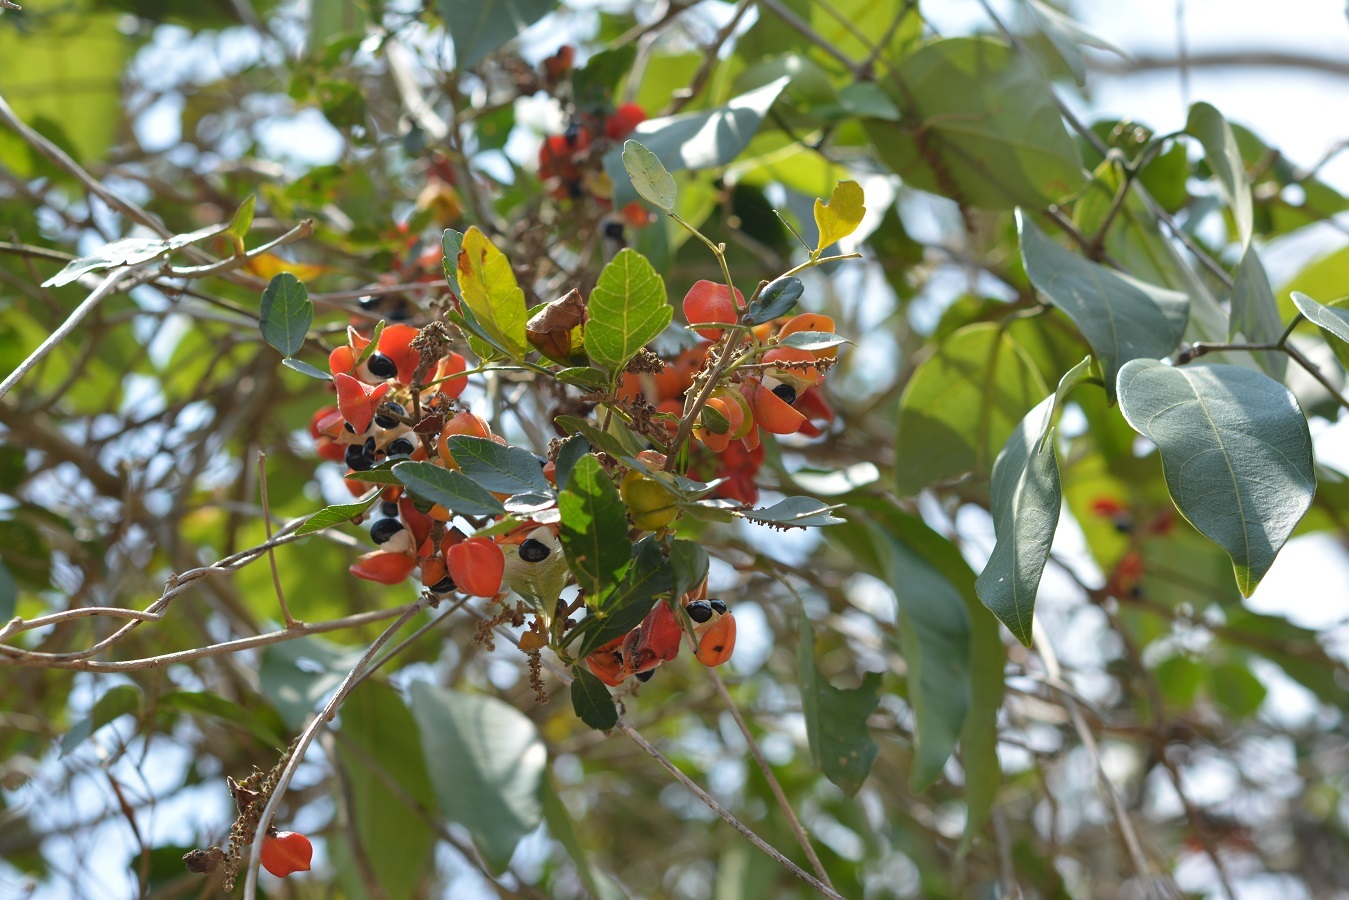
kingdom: Plantae
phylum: Tracheophyta
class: Magnoliopsida
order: Sapindales
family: Sapindaceae
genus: Paullinia
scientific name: Paullinia fuscescens
